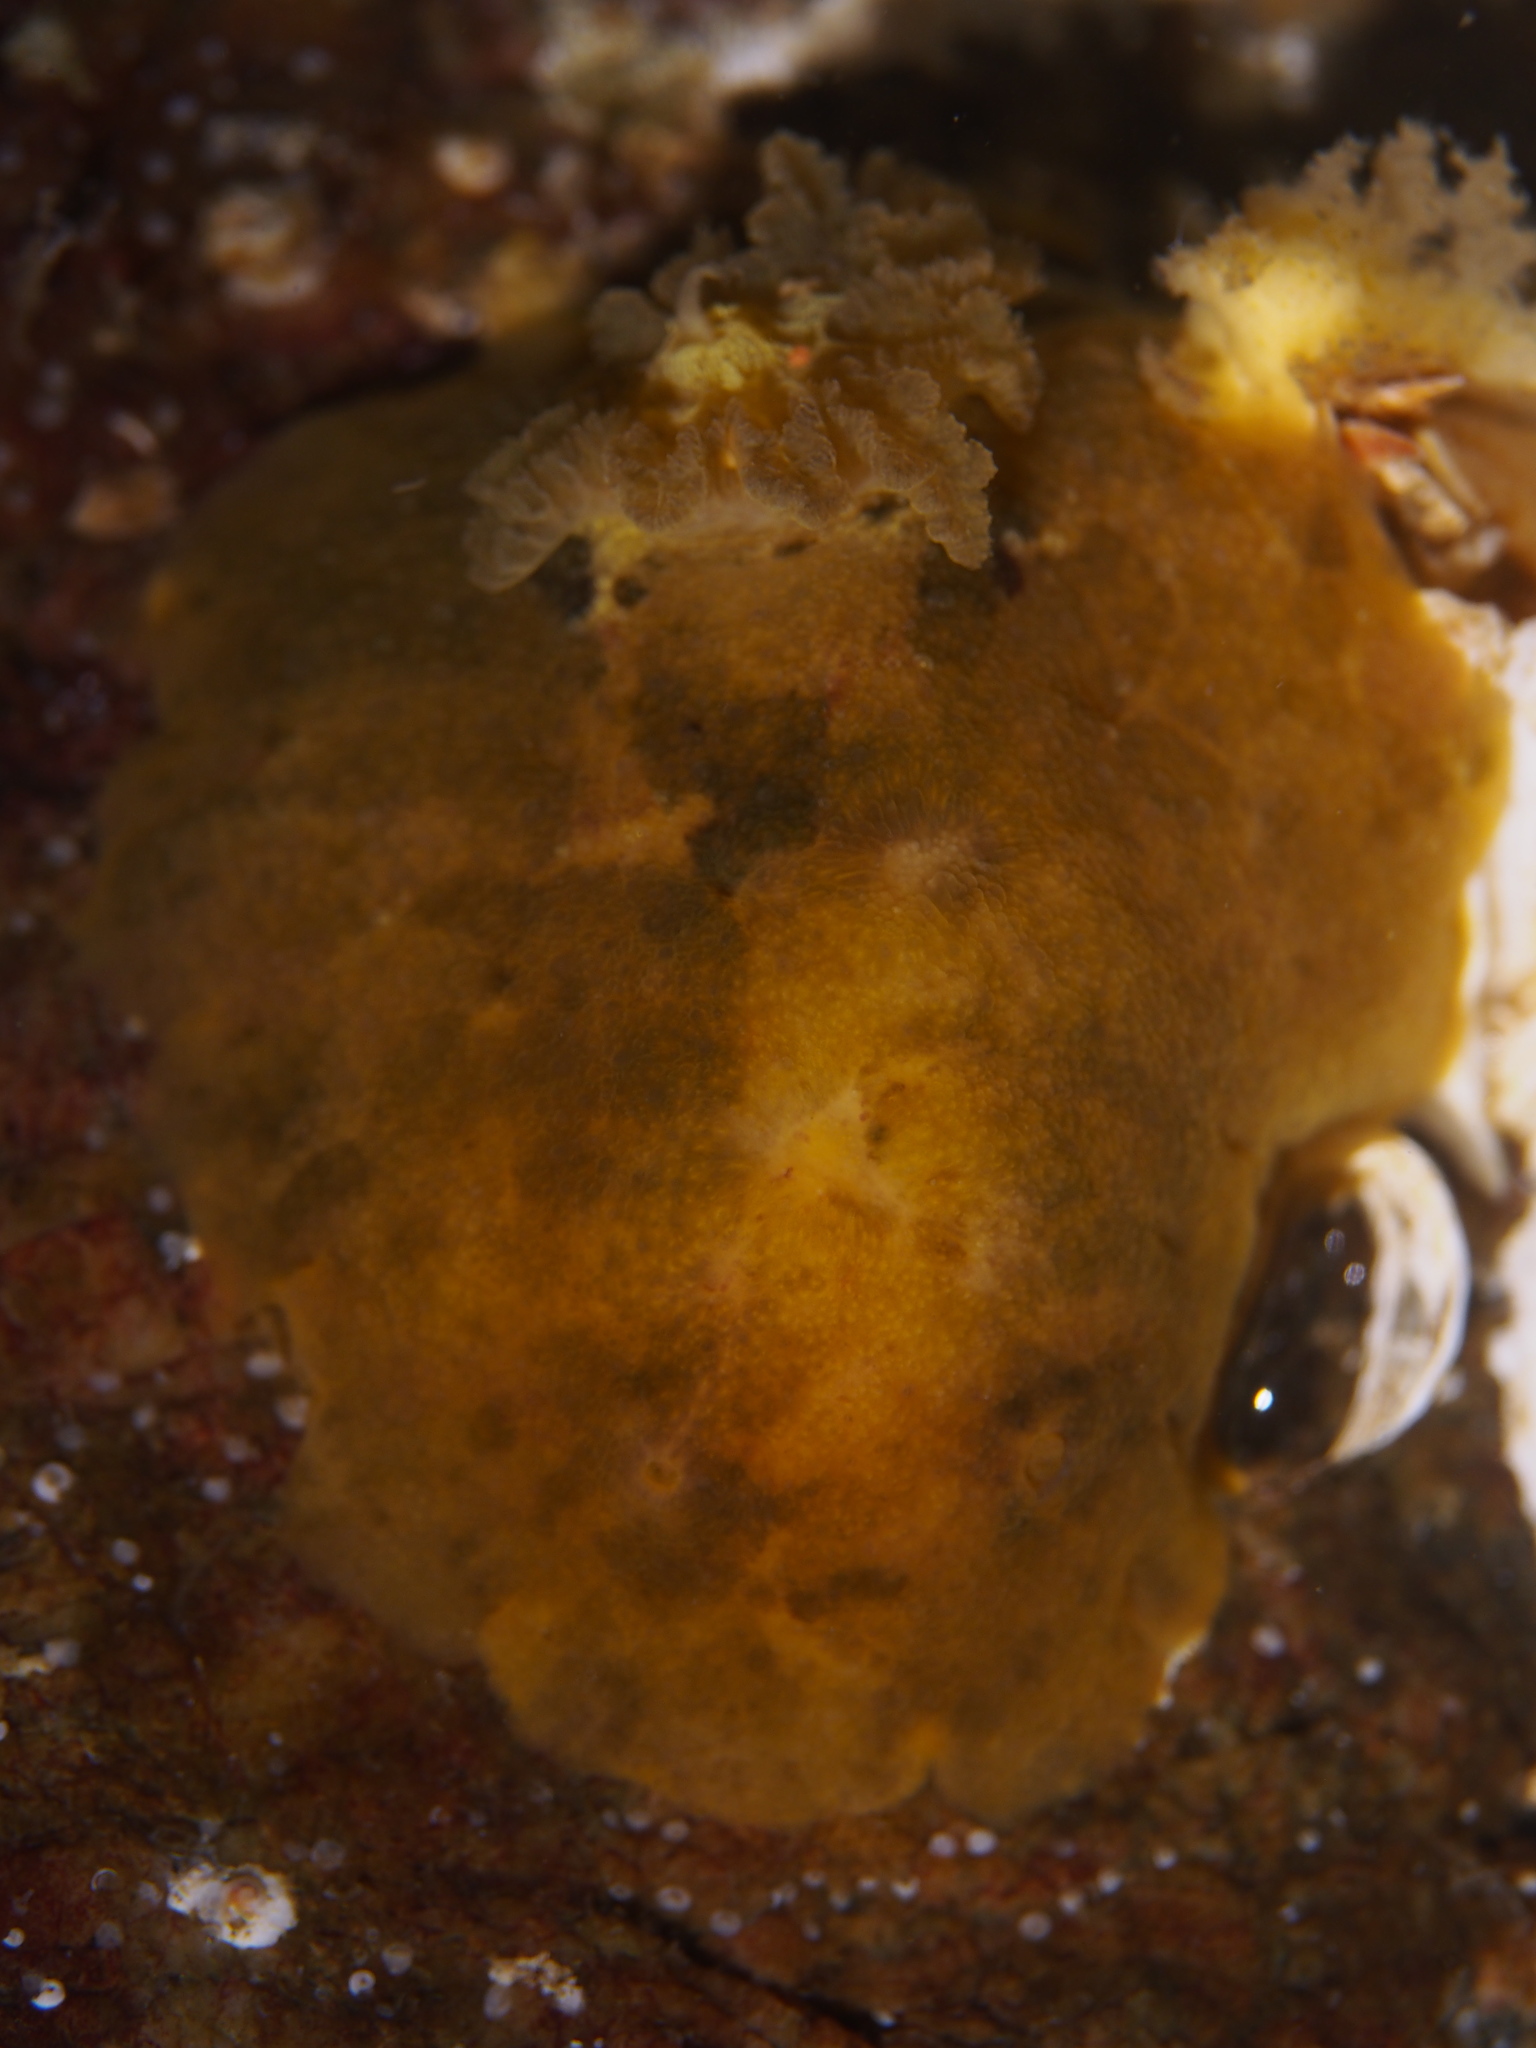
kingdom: Animalia
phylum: Mollusca
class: Gastropoda
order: Nudibranchia
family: Dorididae
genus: Doris
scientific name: Doris pseudoargus
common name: Sea lemon
